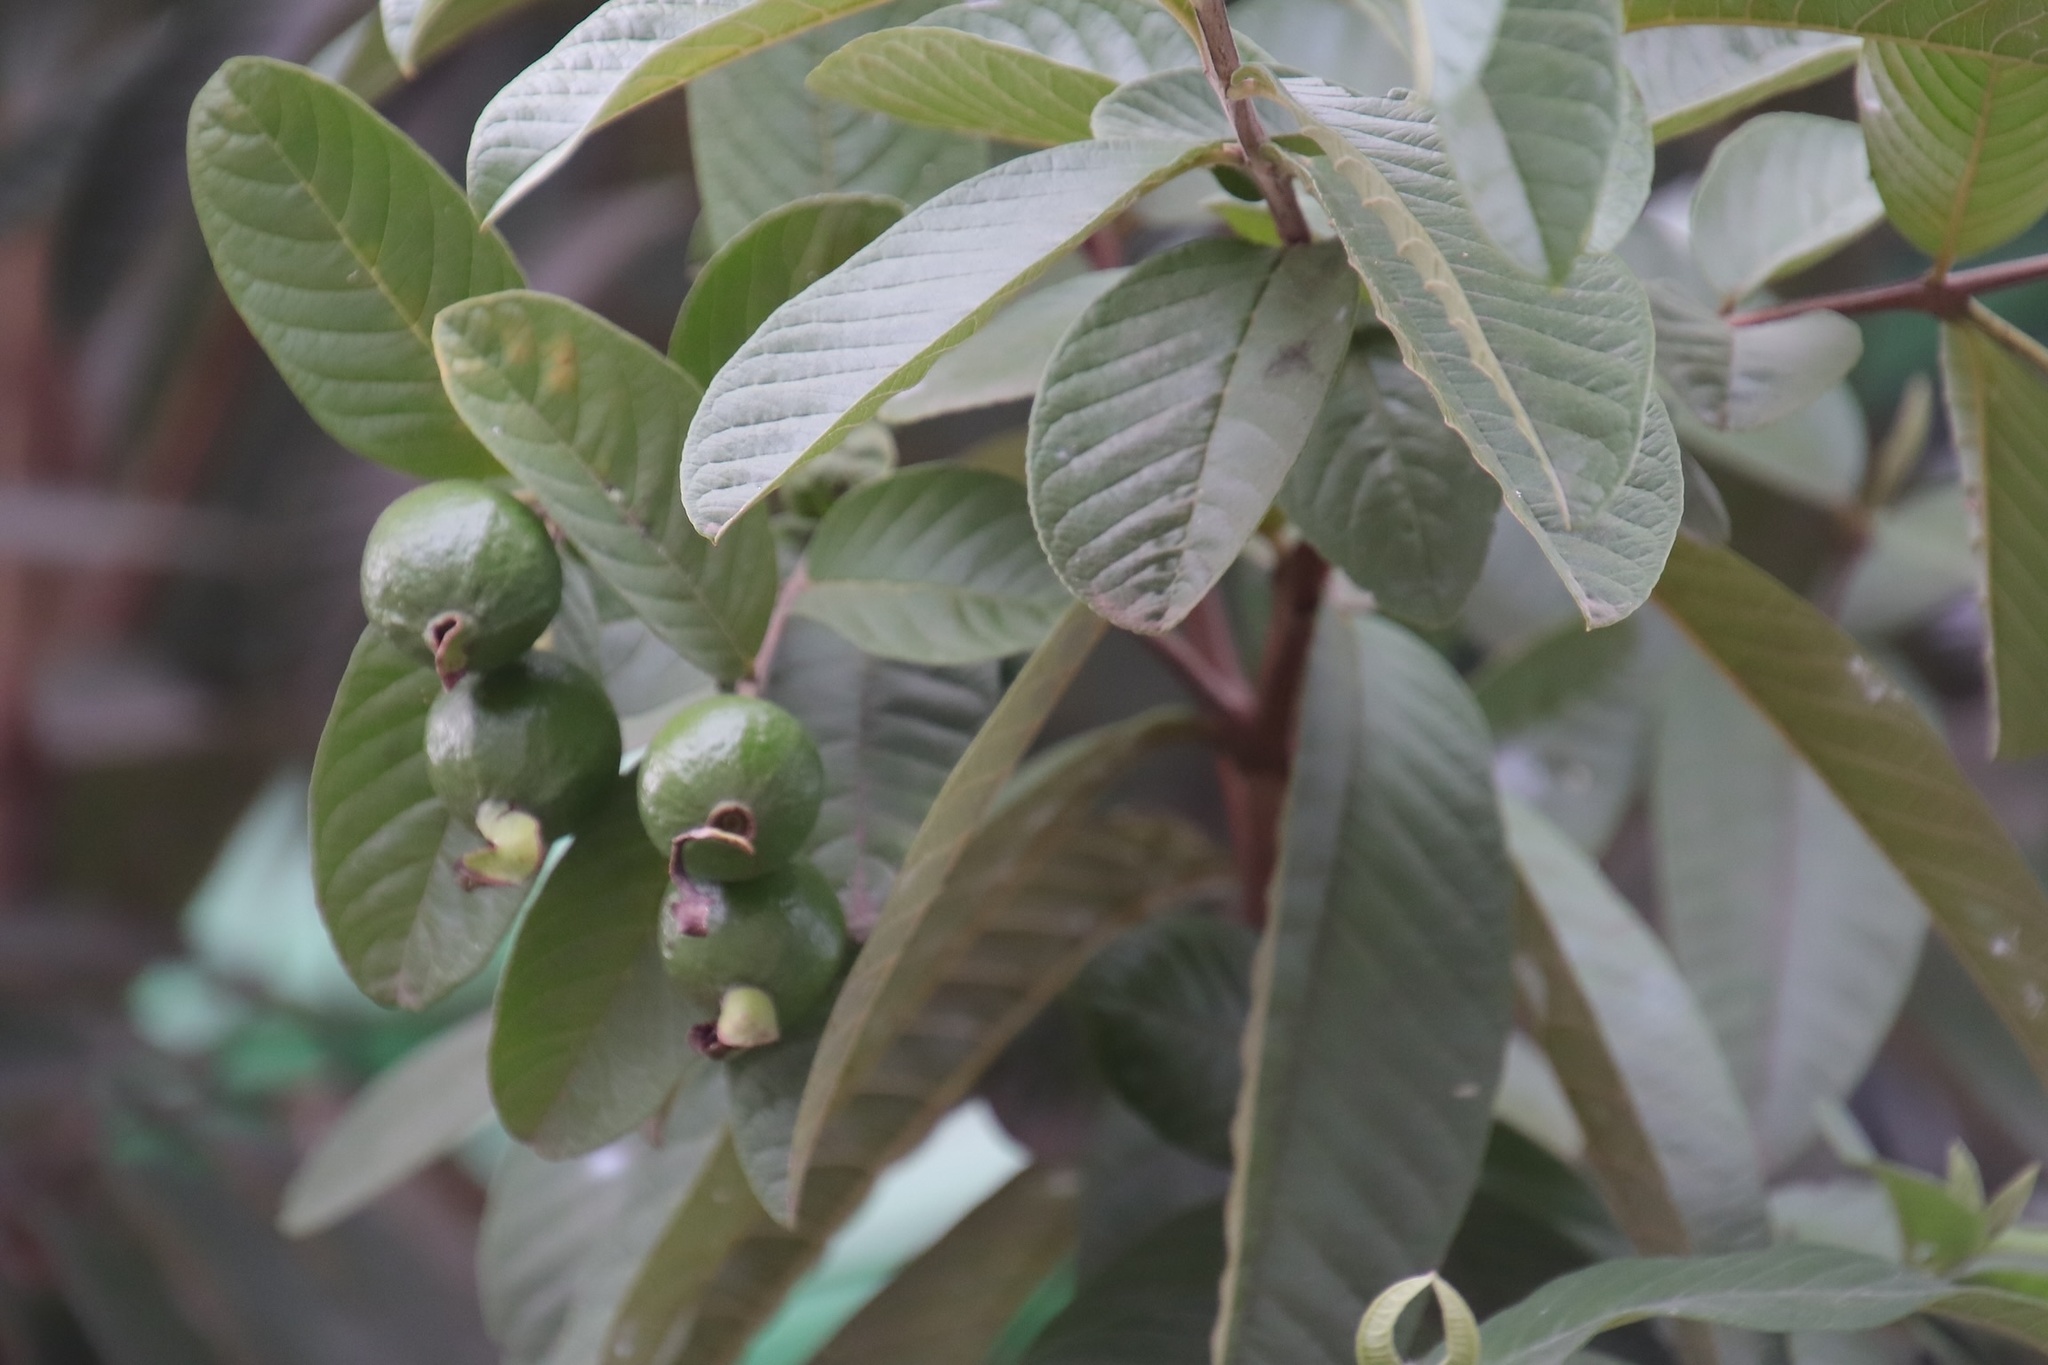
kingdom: Plantae
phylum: Tracheophyta
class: Magnoliopsida
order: Myrtales
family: Myrtaceae
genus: Psidium
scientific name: Psidium guajava
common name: Guava
